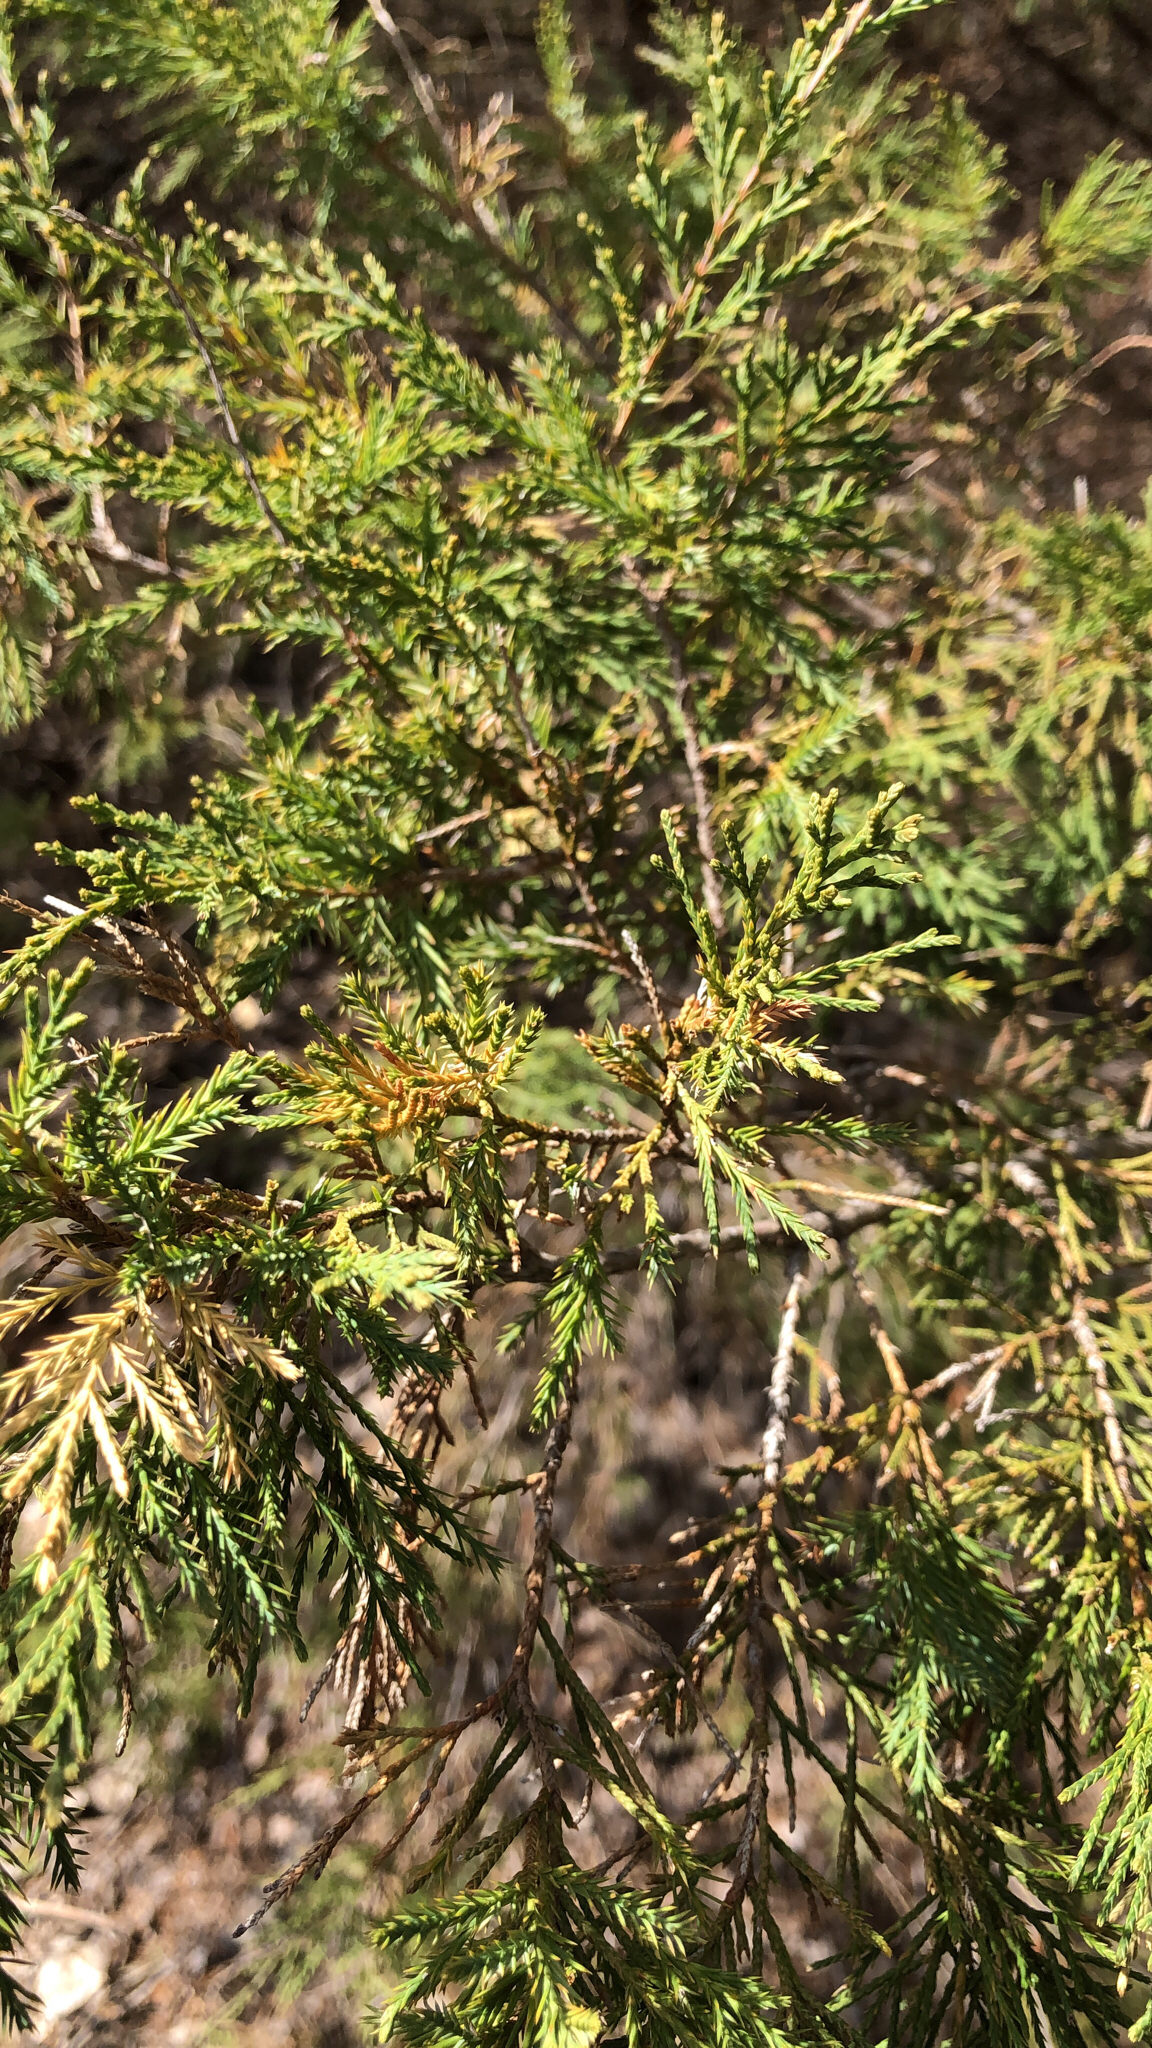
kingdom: Plantae
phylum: Tracheophyta
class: Pinopsida
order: Pinales
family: Cupressaceae
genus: Juniperus
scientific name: Juniperus virginiana
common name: Red juniper
